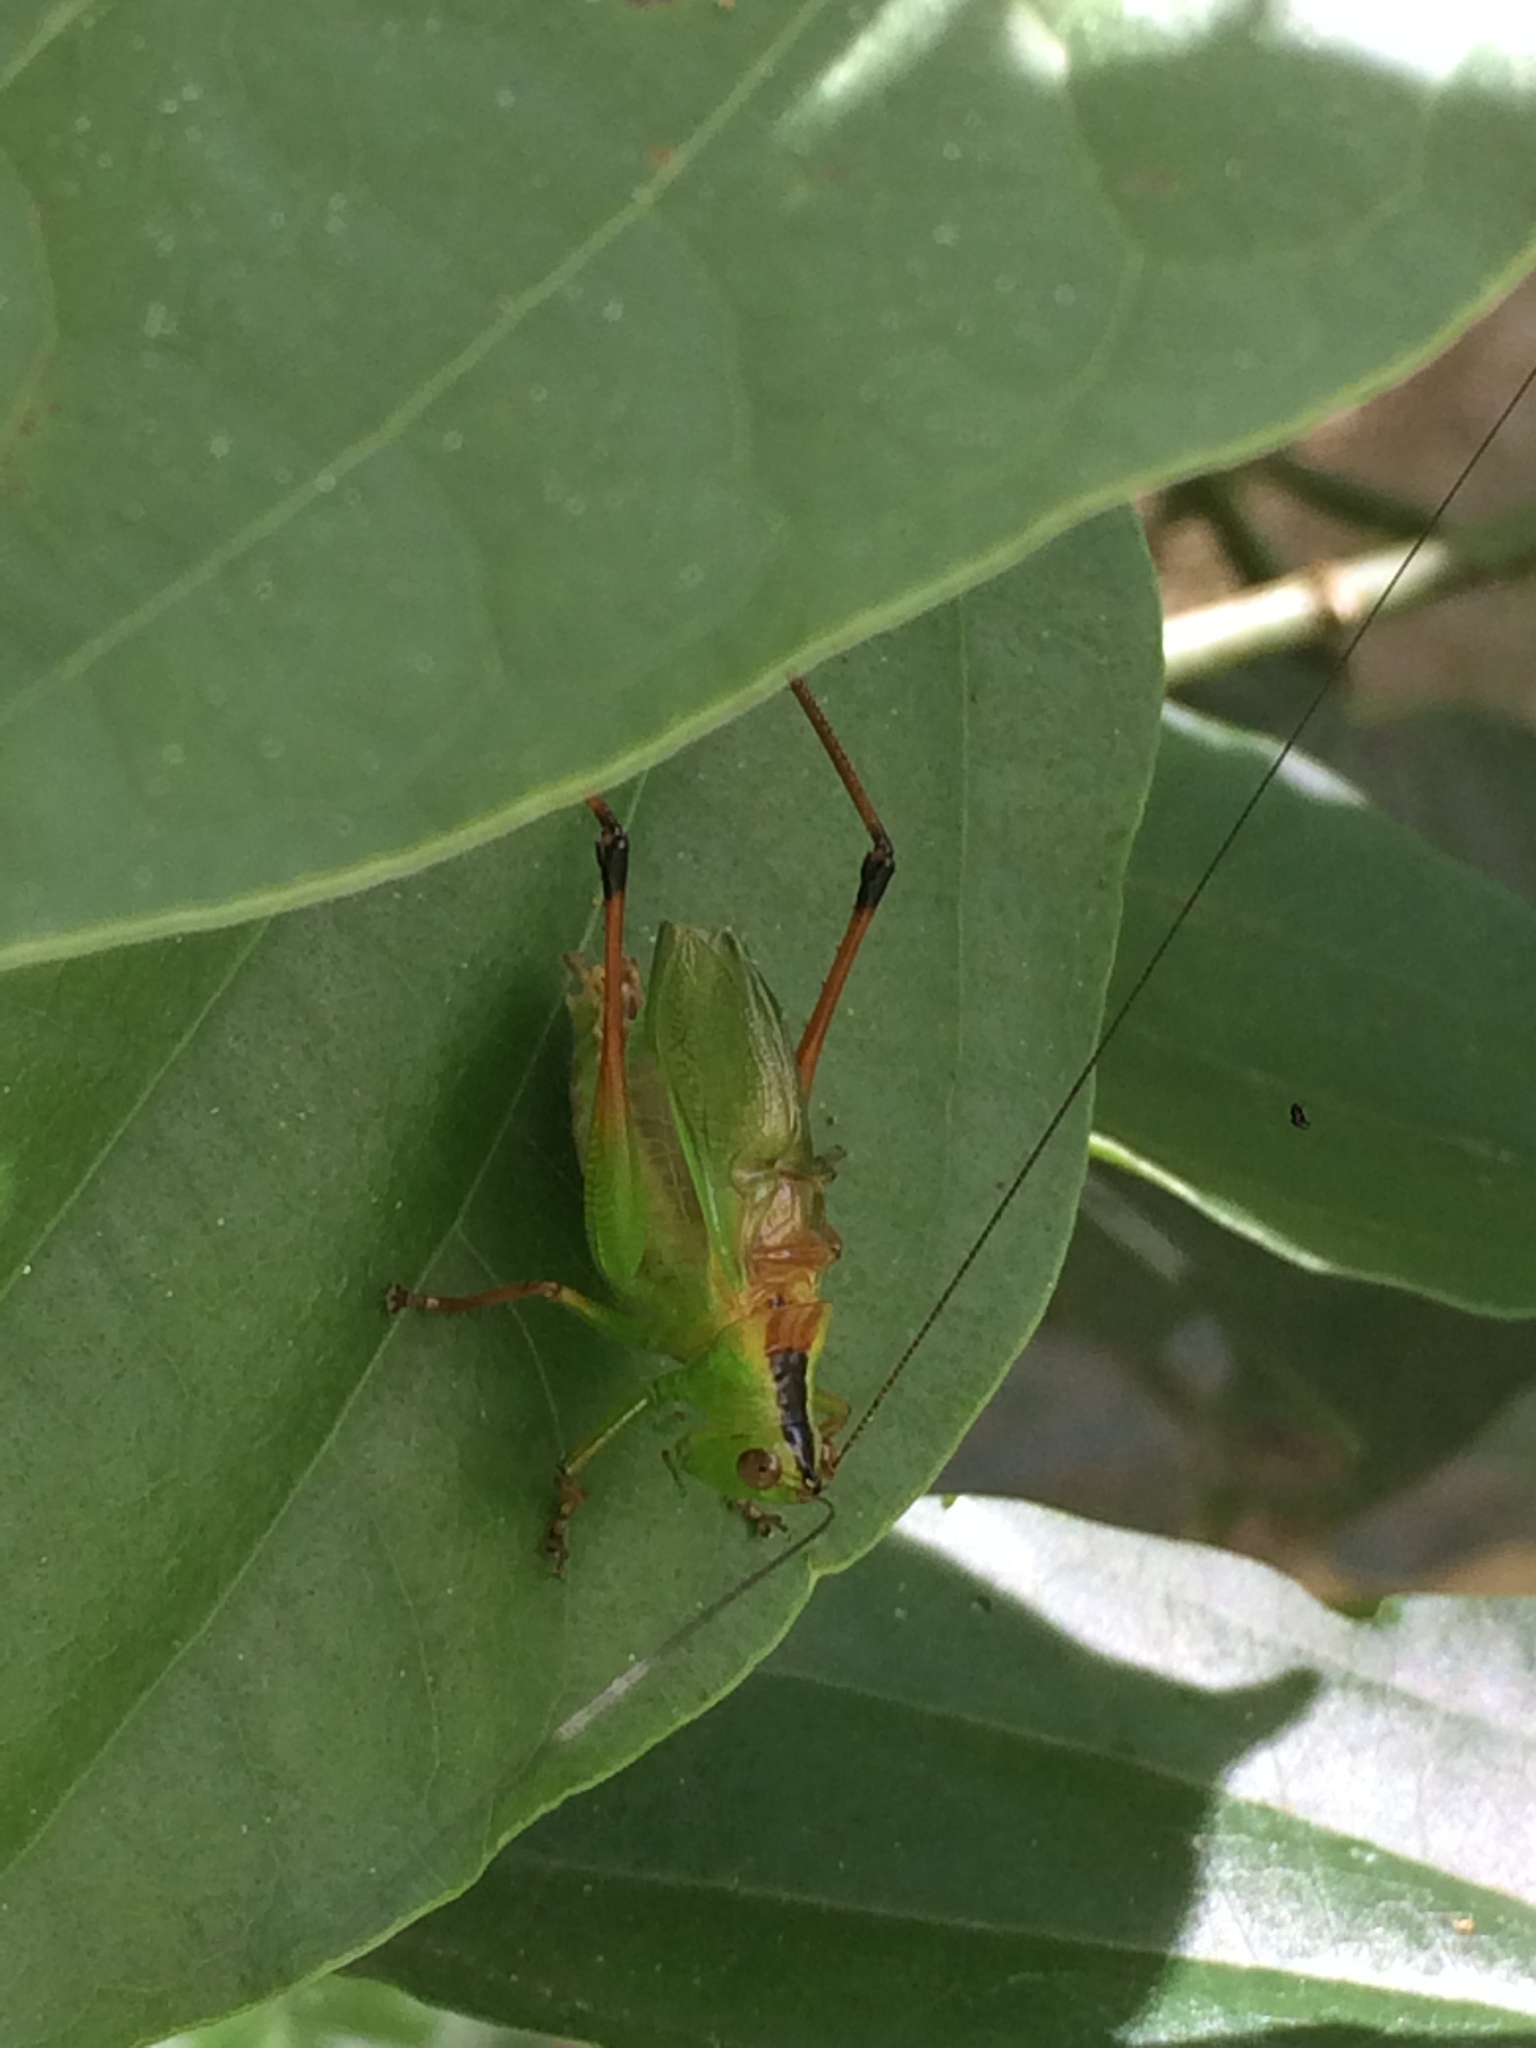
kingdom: Animalia
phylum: Arthropoda
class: Insecta
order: Orthoptera
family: Tettigoniidae
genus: Xiphelimum
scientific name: Xiphelimum amplipennis
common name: Clear-wing meadow katydid
